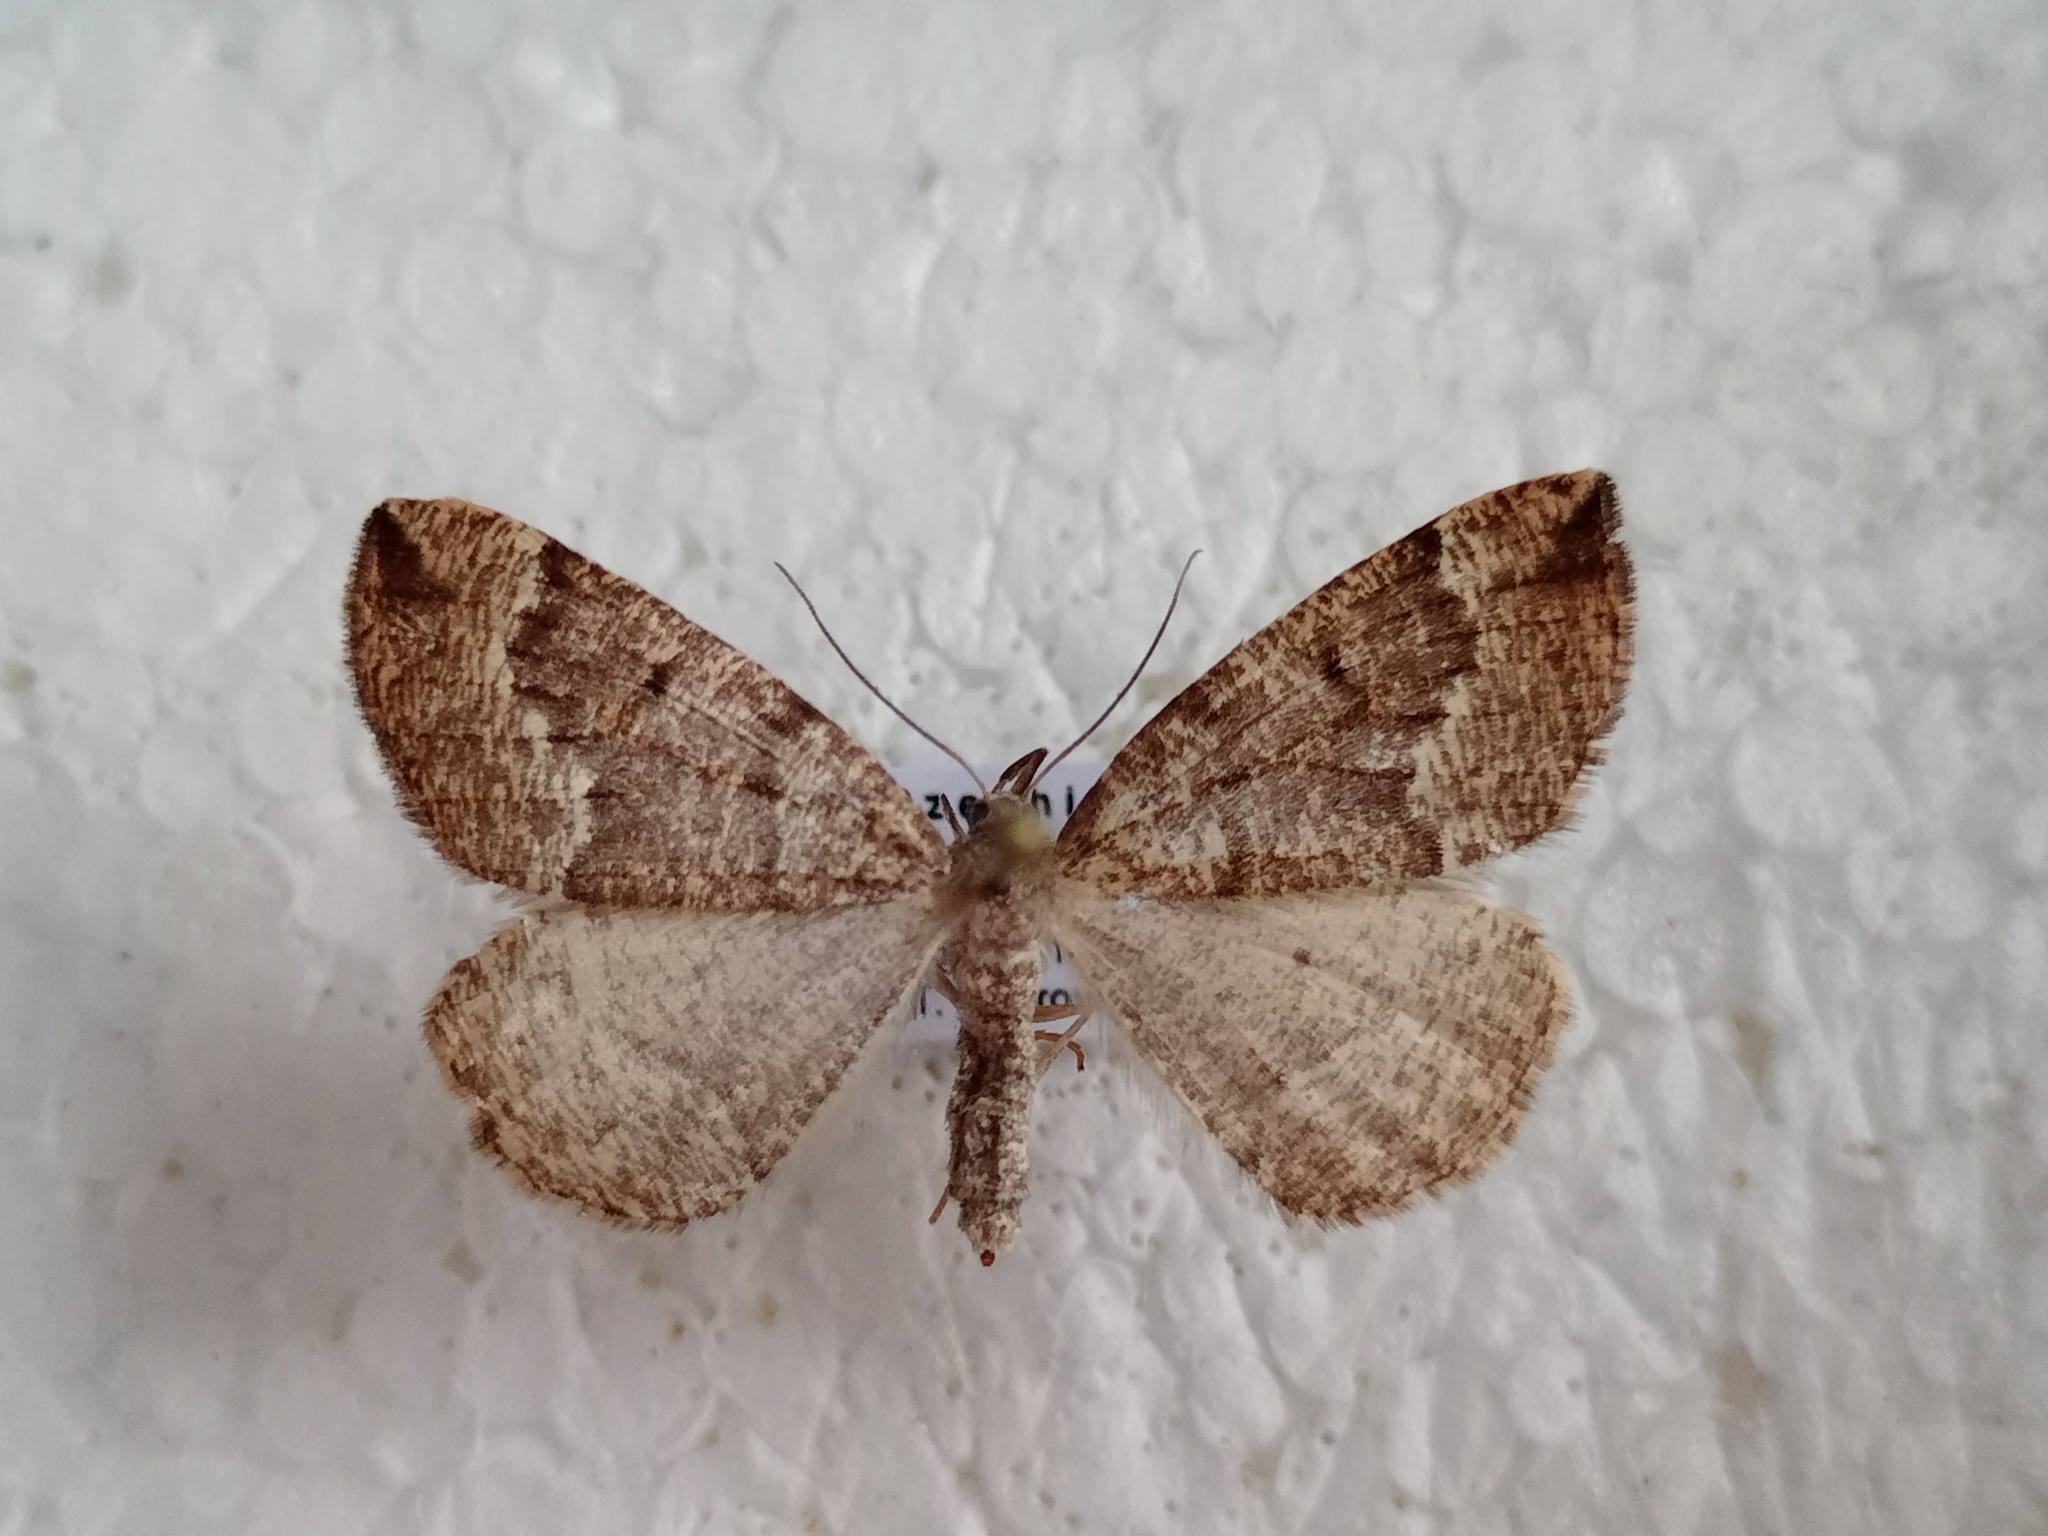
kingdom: Animalia
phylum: Arthropoda
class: Insecta
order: Lepidoptera
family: Geometridae
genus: Pungeleria
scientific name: Pungeleria capreolaria
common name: Banded pine carpet
